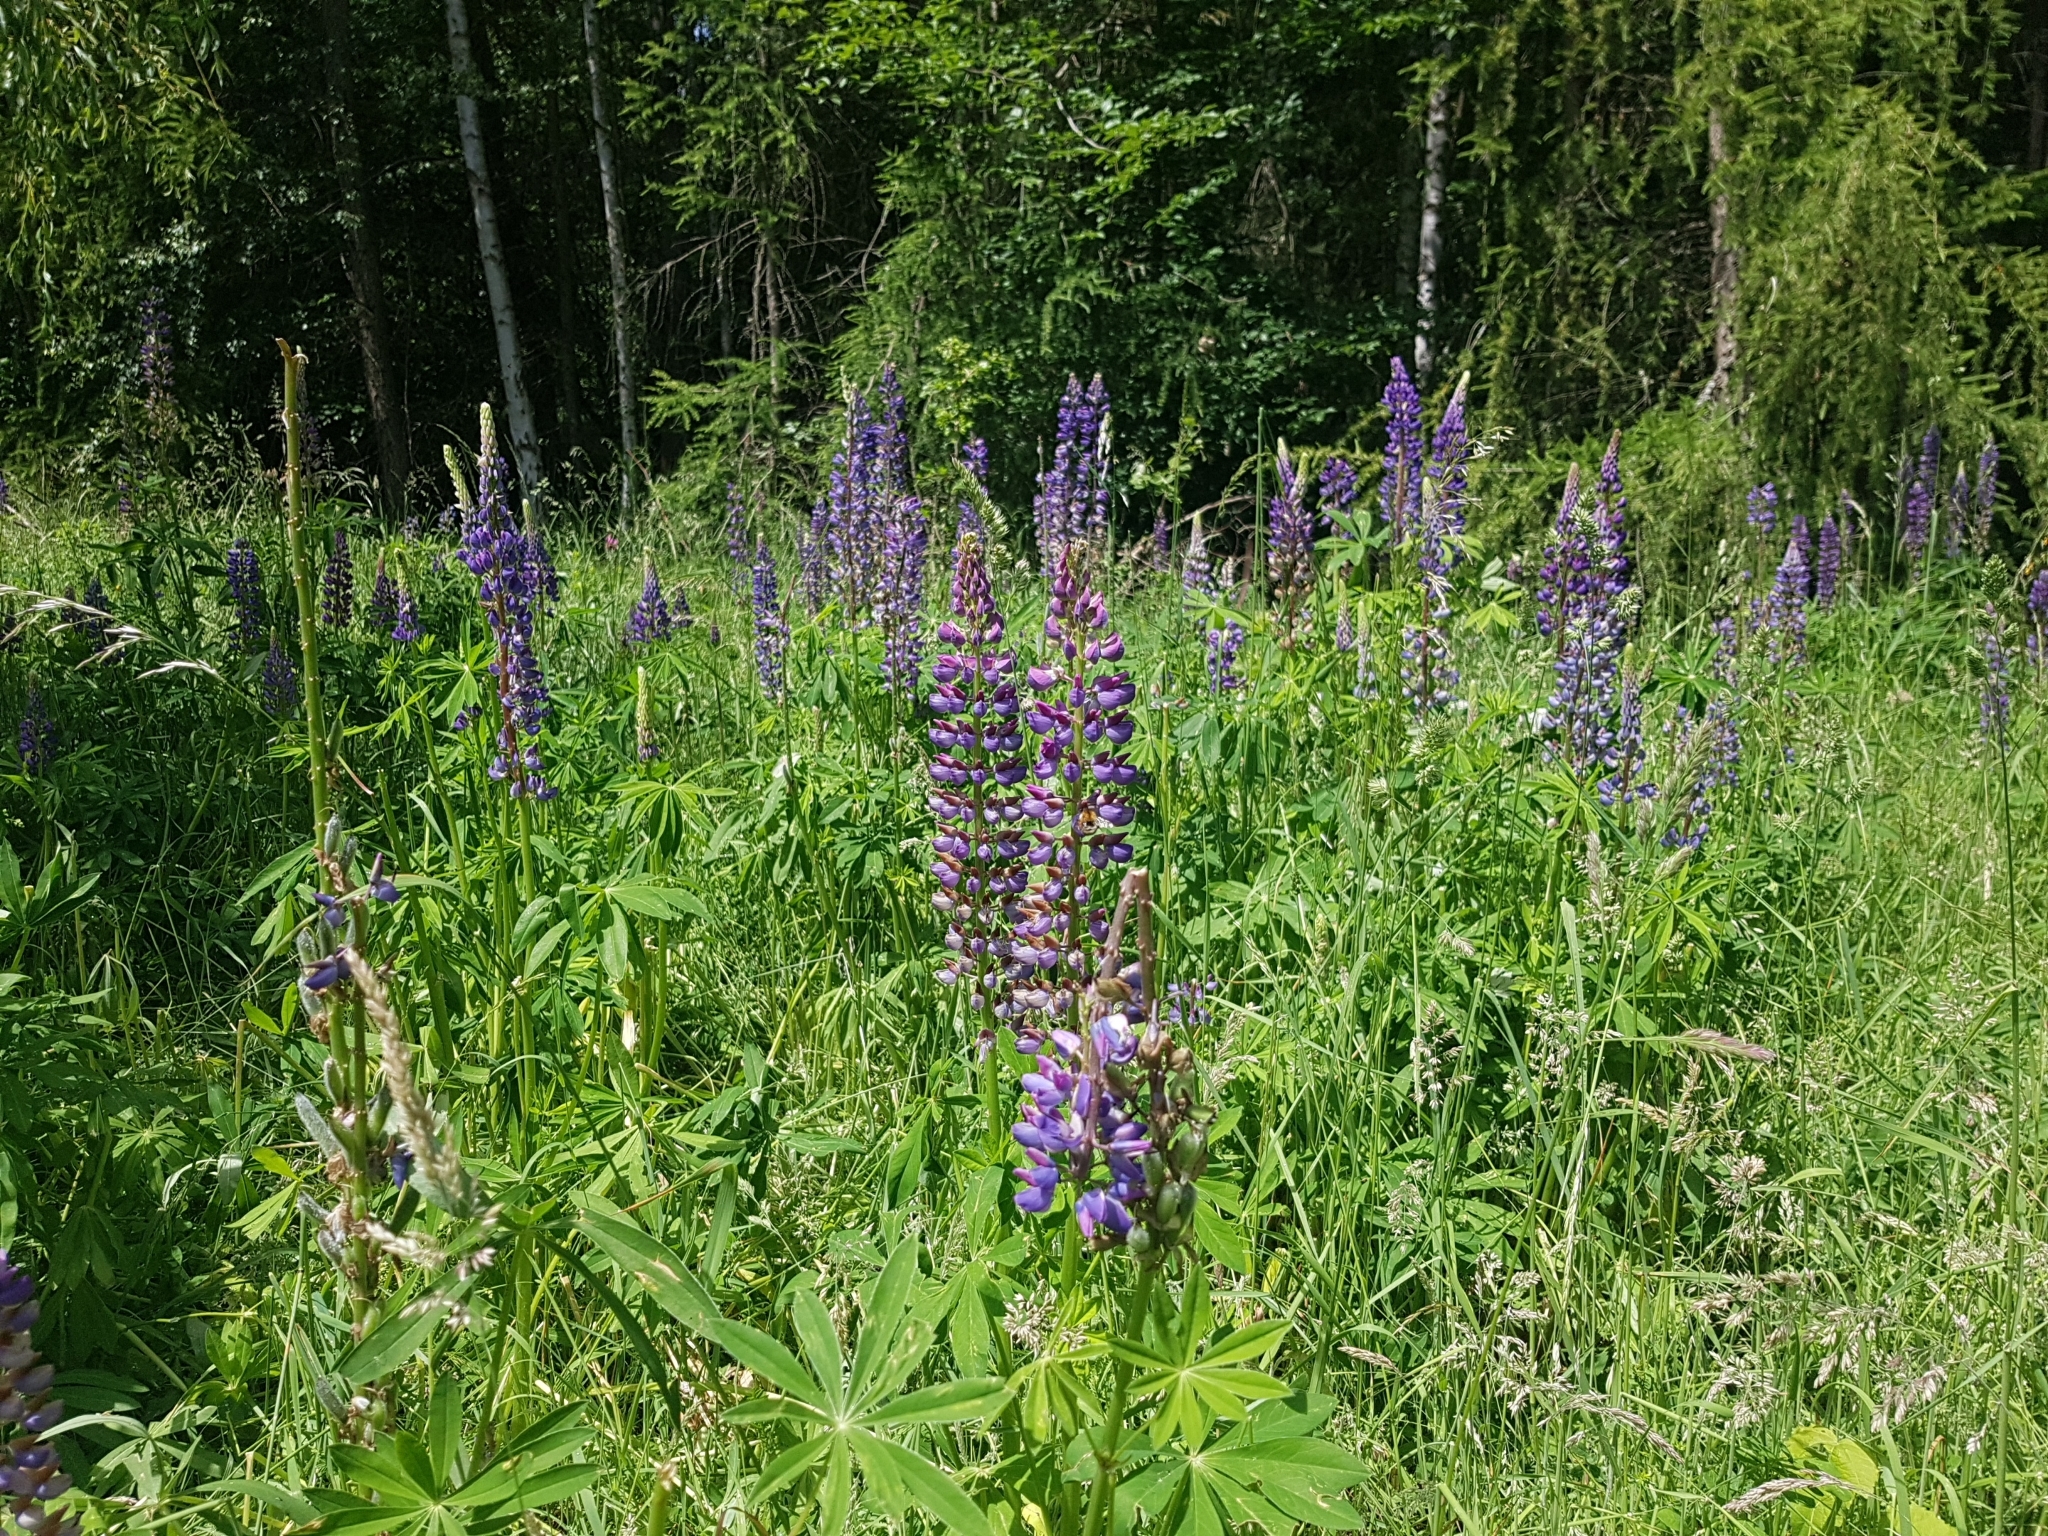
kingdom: Plantae
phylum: Tracheophyta
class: Magnoliopsida
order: Fabales
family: Fabaceae
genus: Lupinus
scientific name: Lupinus polyphyllus
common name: Garden lupin
